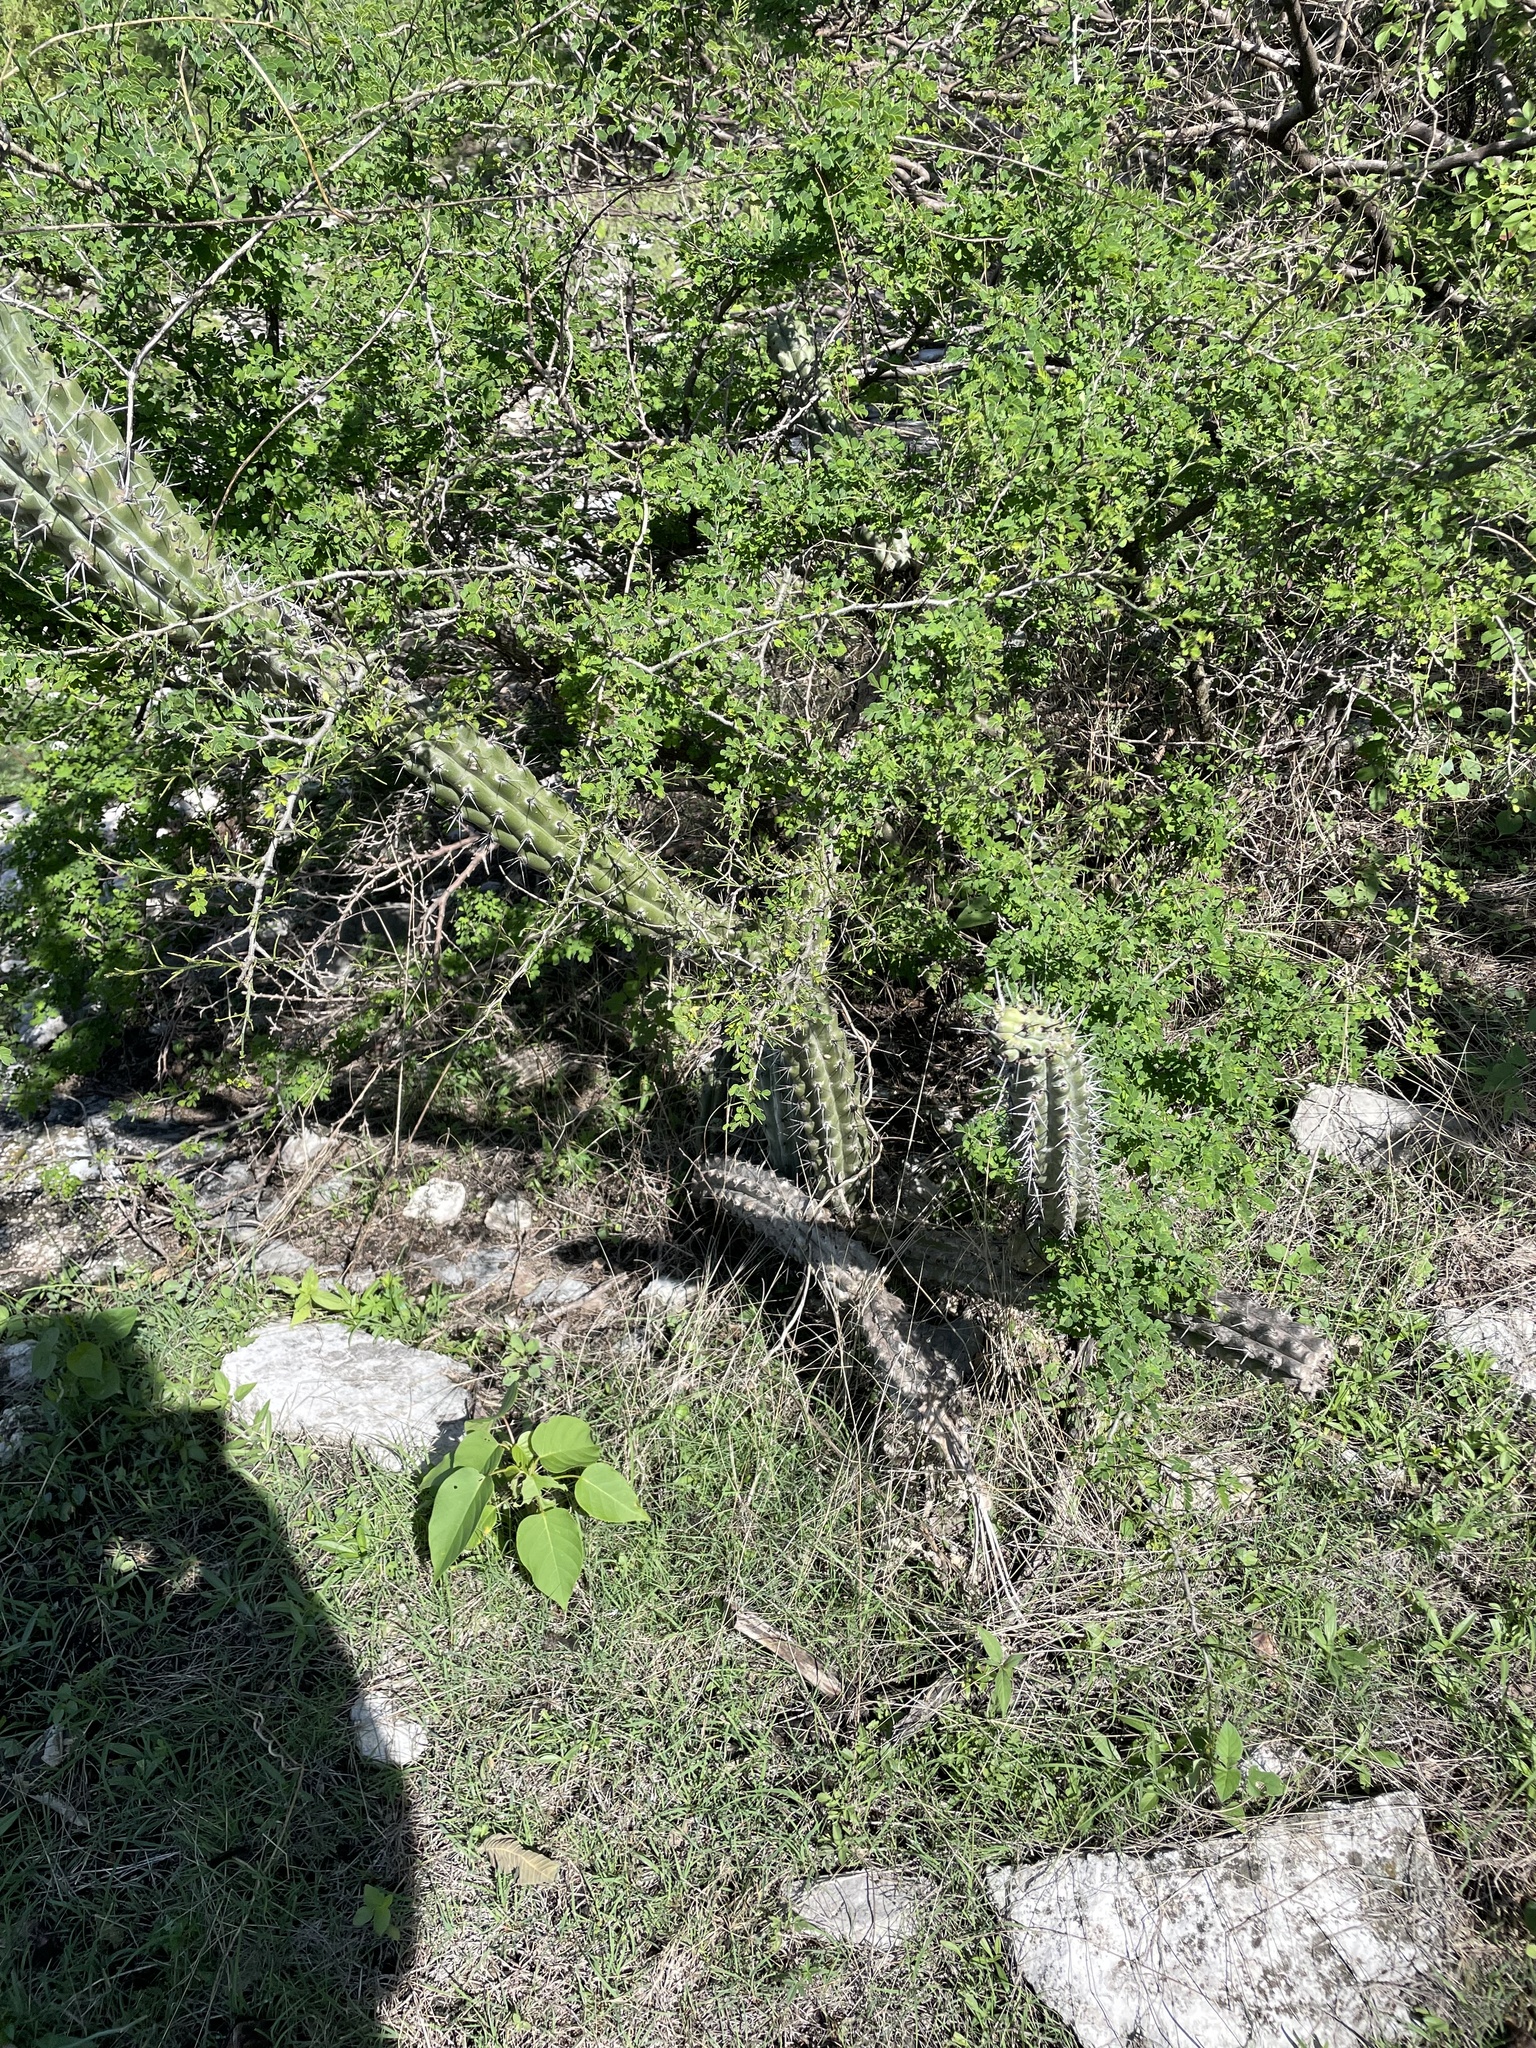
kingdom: Plantae
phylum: Tracheophyta
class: Magnoliopsida
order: Caryophyllales
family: Cactaceae
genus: Stenocereus
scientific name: Stenocereus beneckei
